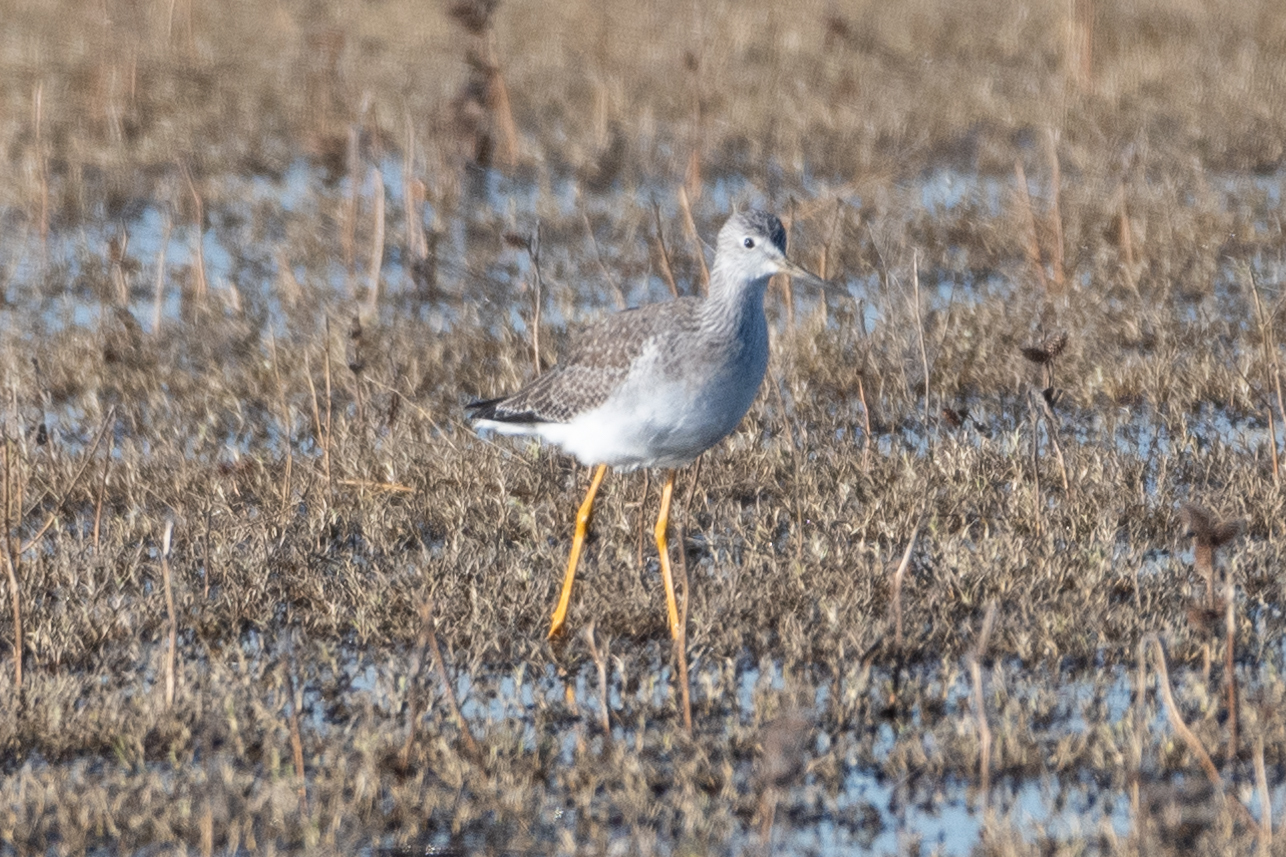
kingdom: Animalia
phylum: Chordata
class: Aves
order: Charadriiformes
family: Scolopacidae
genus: Tringa
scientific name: Tringa melanoleuca
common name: Greater yellowlegs
